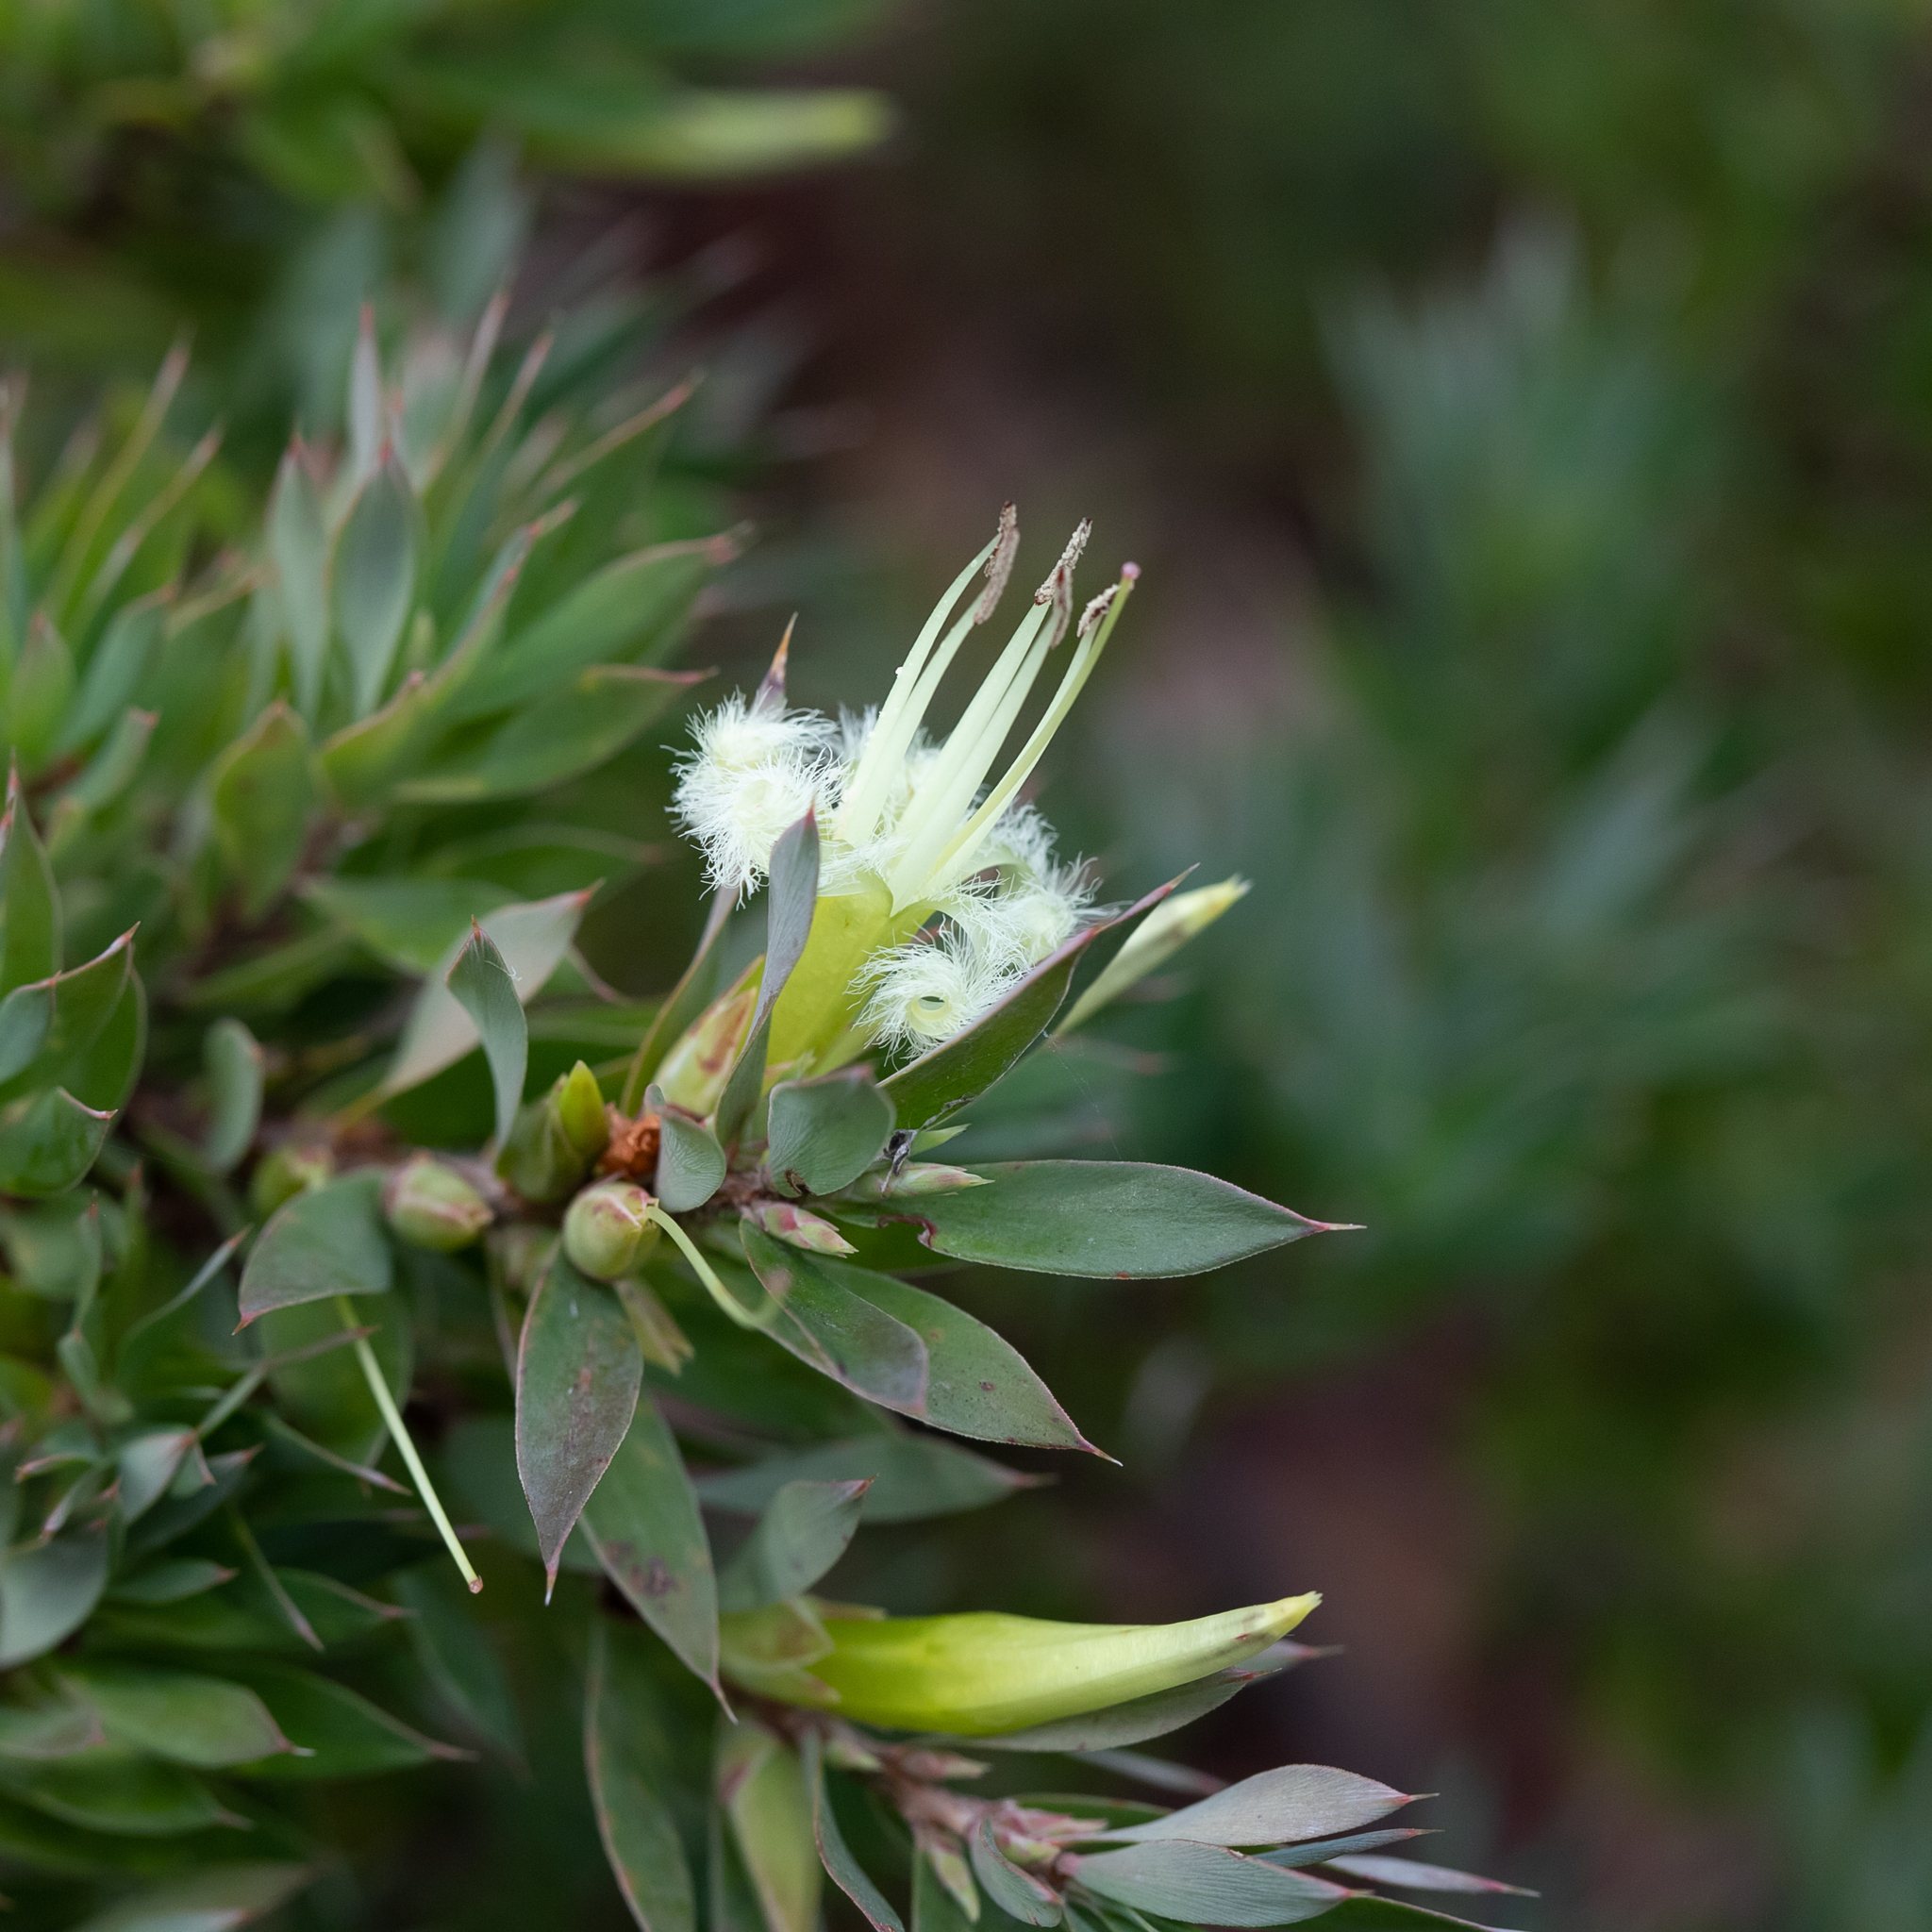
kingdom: Plantae
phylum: Tracheophyta
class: Magnoliopsida
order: Ericales
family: Ericaceae
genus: Styphelia
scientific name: Styphelia adscendens
